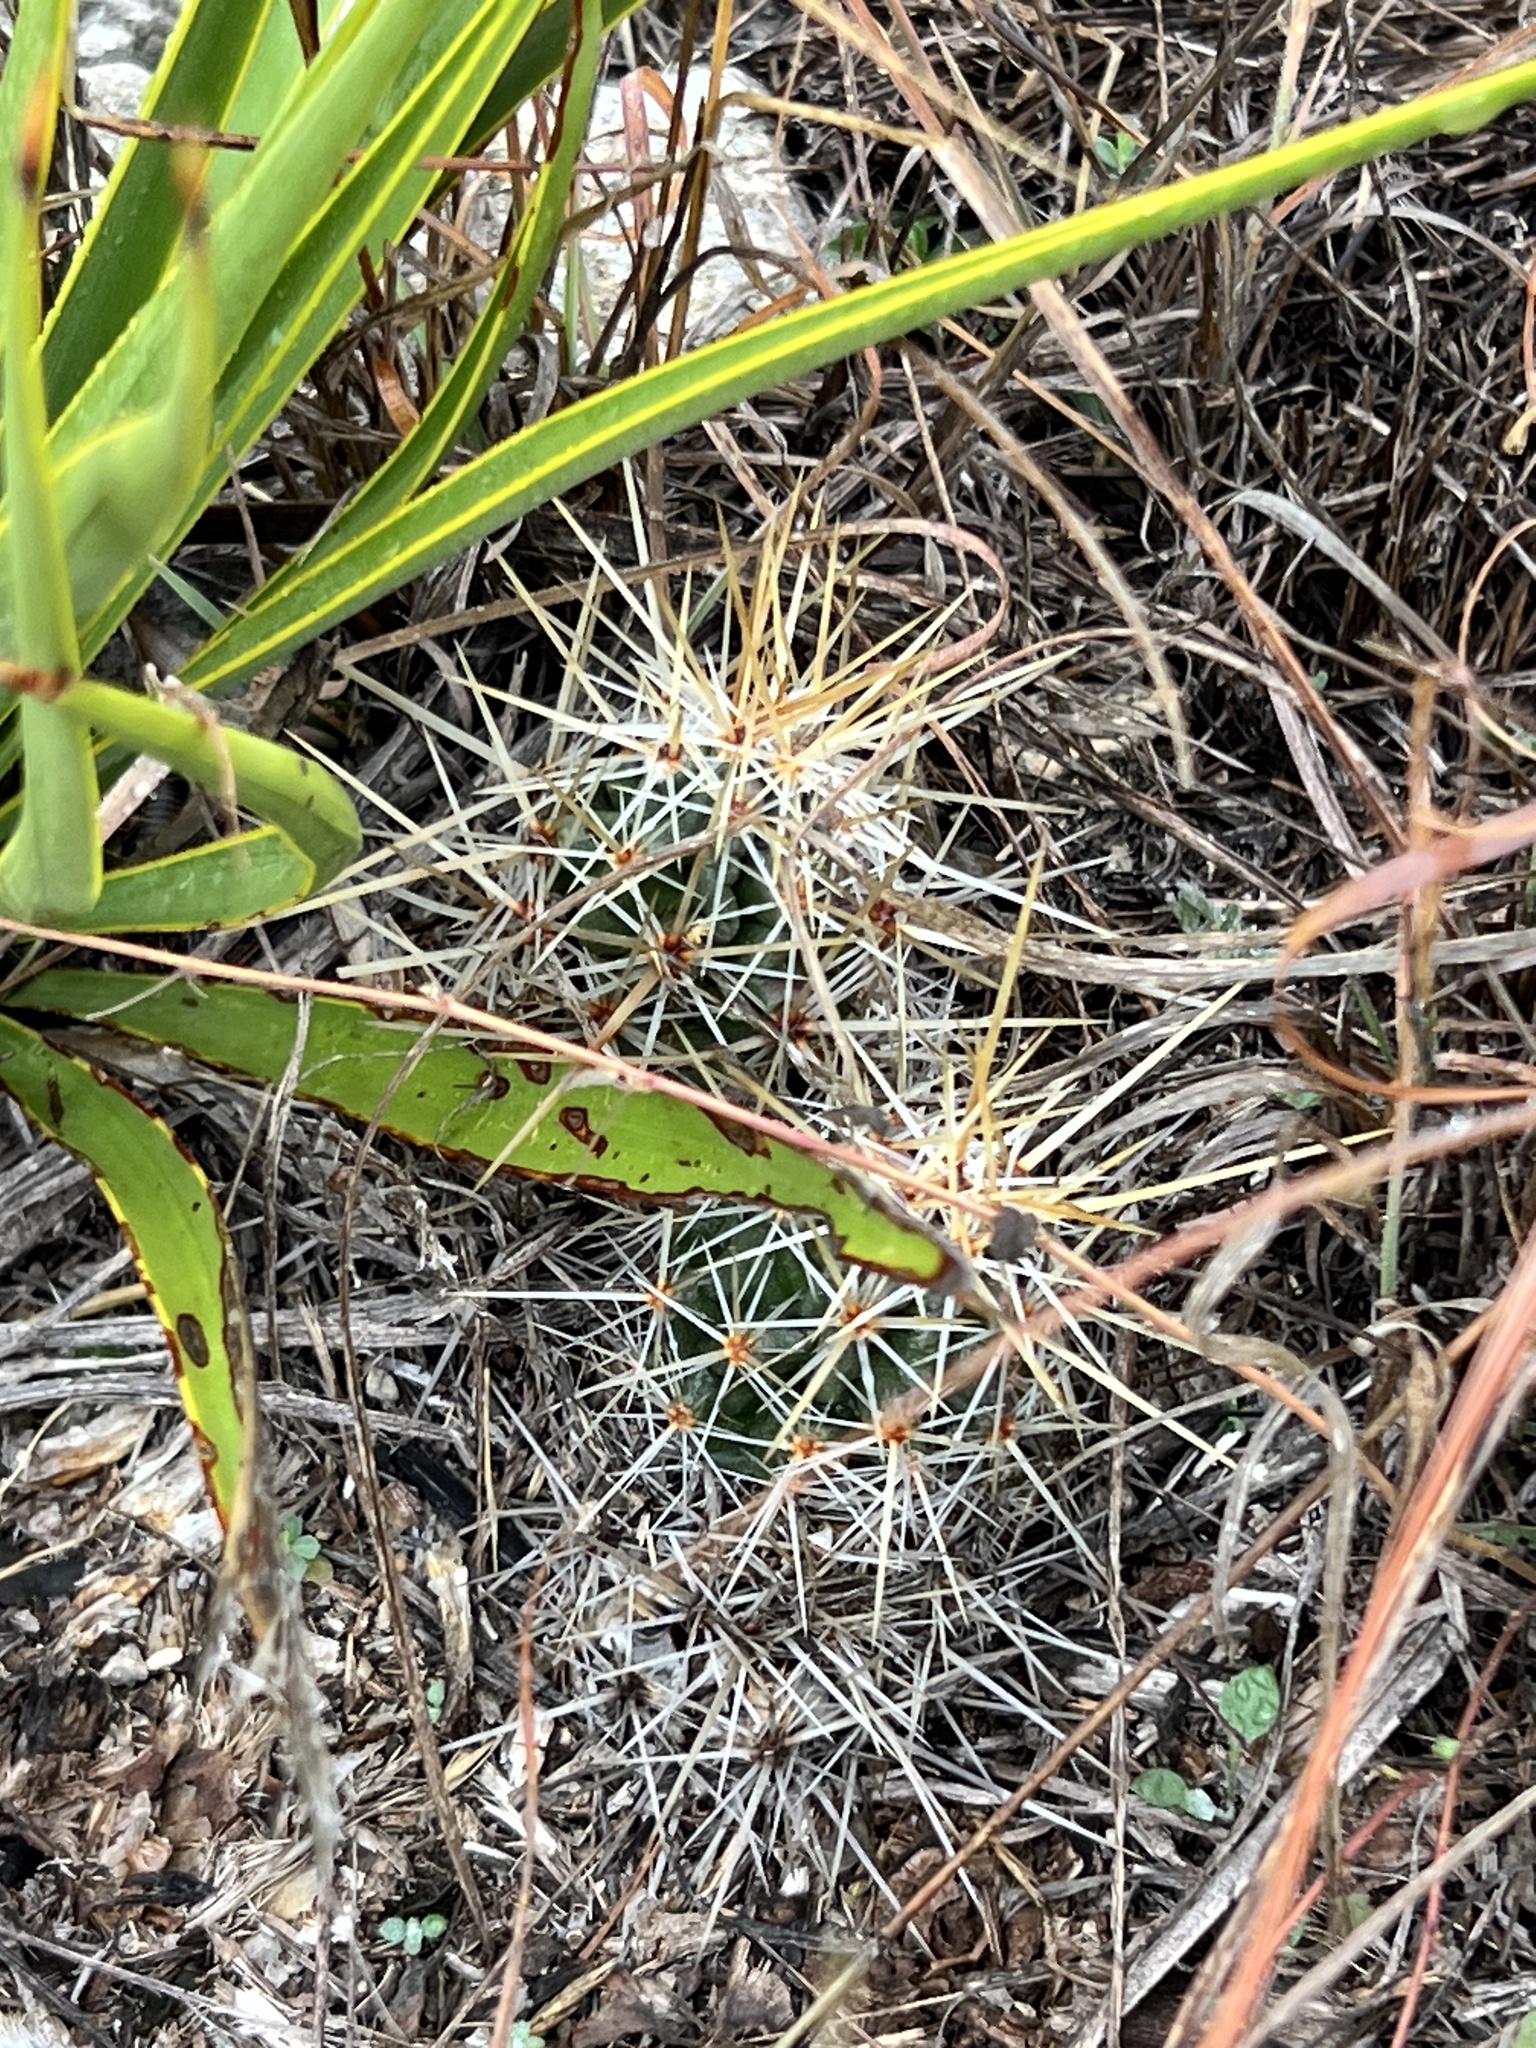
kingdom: Plantae
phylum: Tracheophyta
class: Magnoliopsida
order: Caryophyllales
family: Cactaceae
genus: Echinocereus
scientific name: Echinocereus enneacanthus
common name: Pitaya
